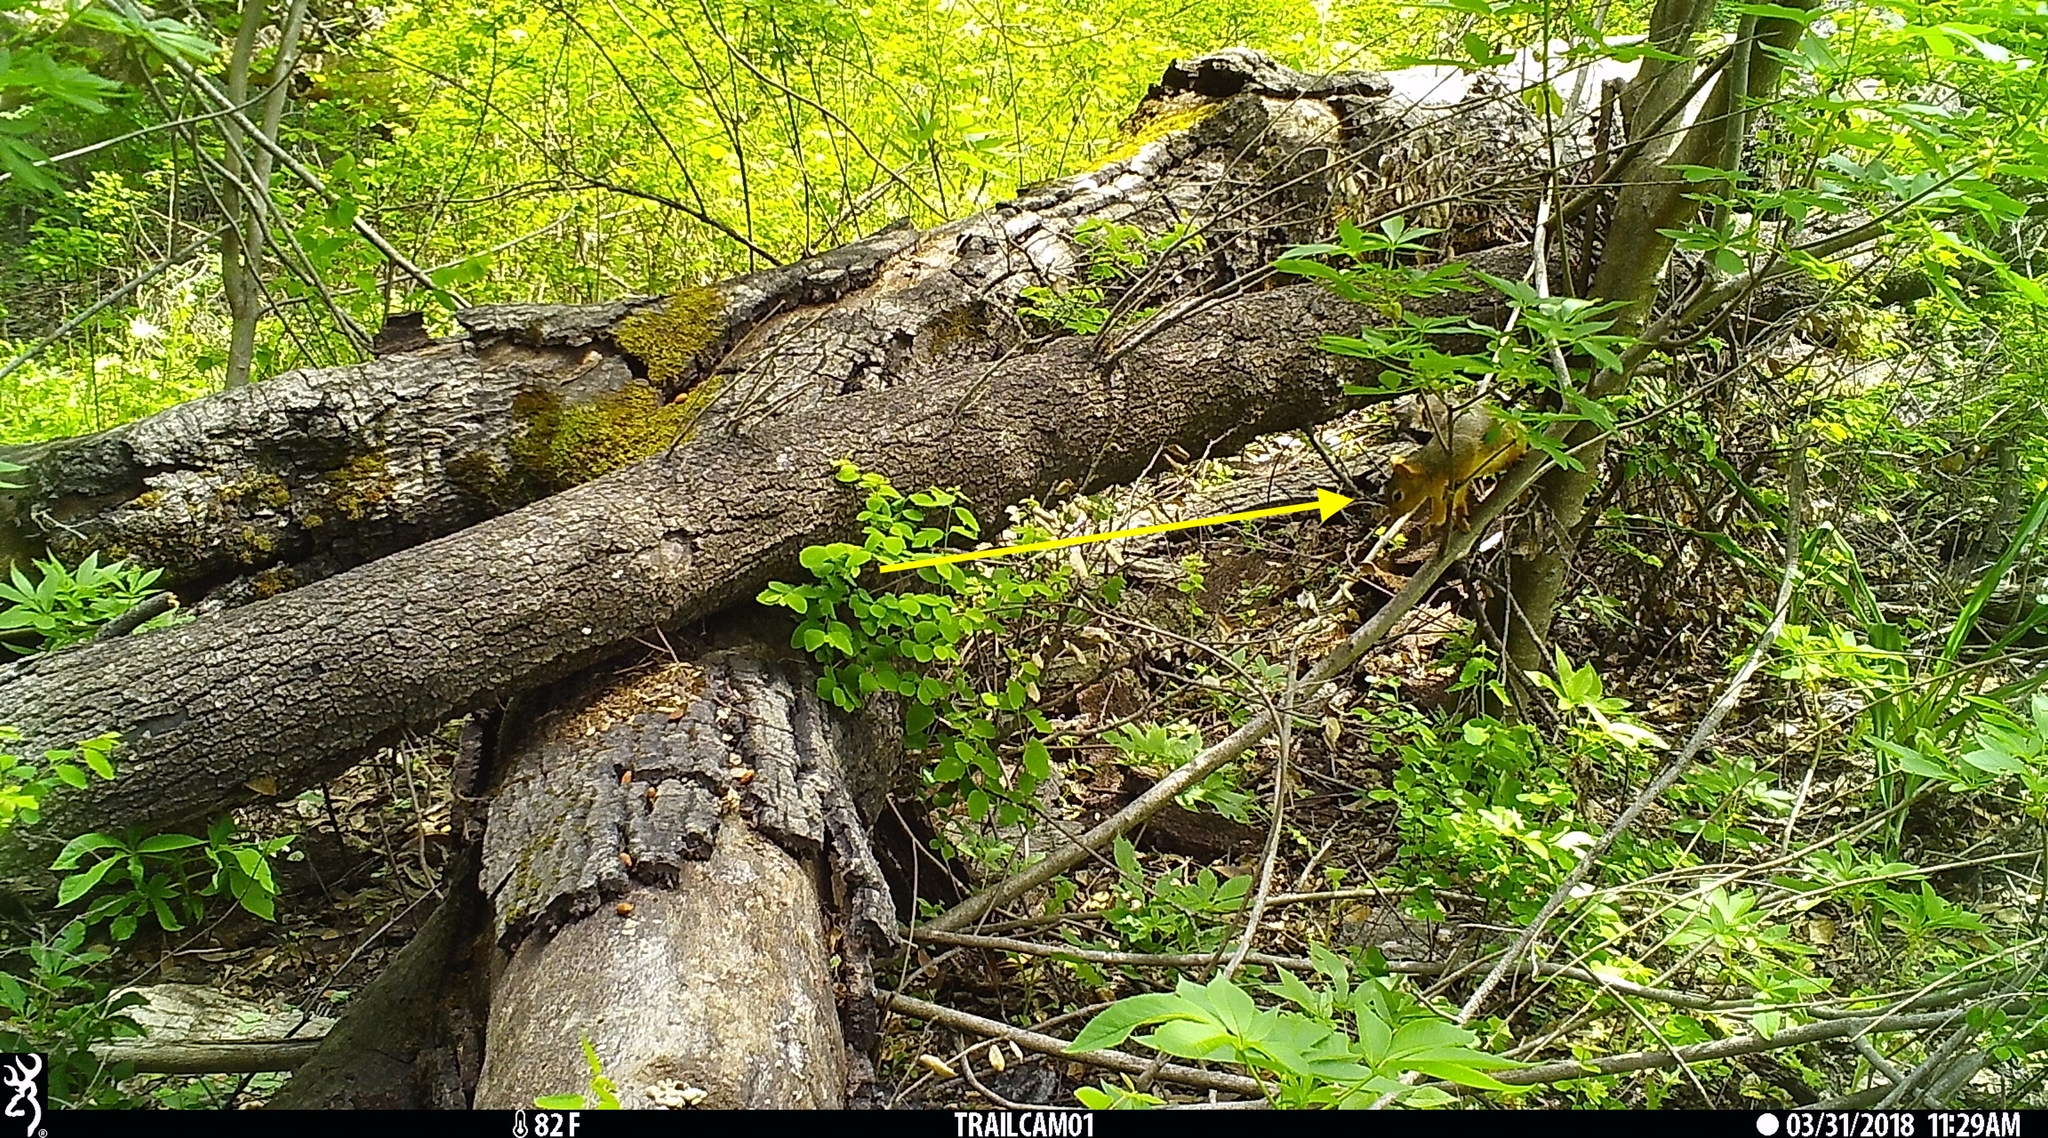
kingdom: Animalia
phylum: Chordata
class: Mammalia
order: Rodentia
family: Sciuridae
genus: Sciurus
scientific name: Sciurus niger
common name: Fox squirrel
